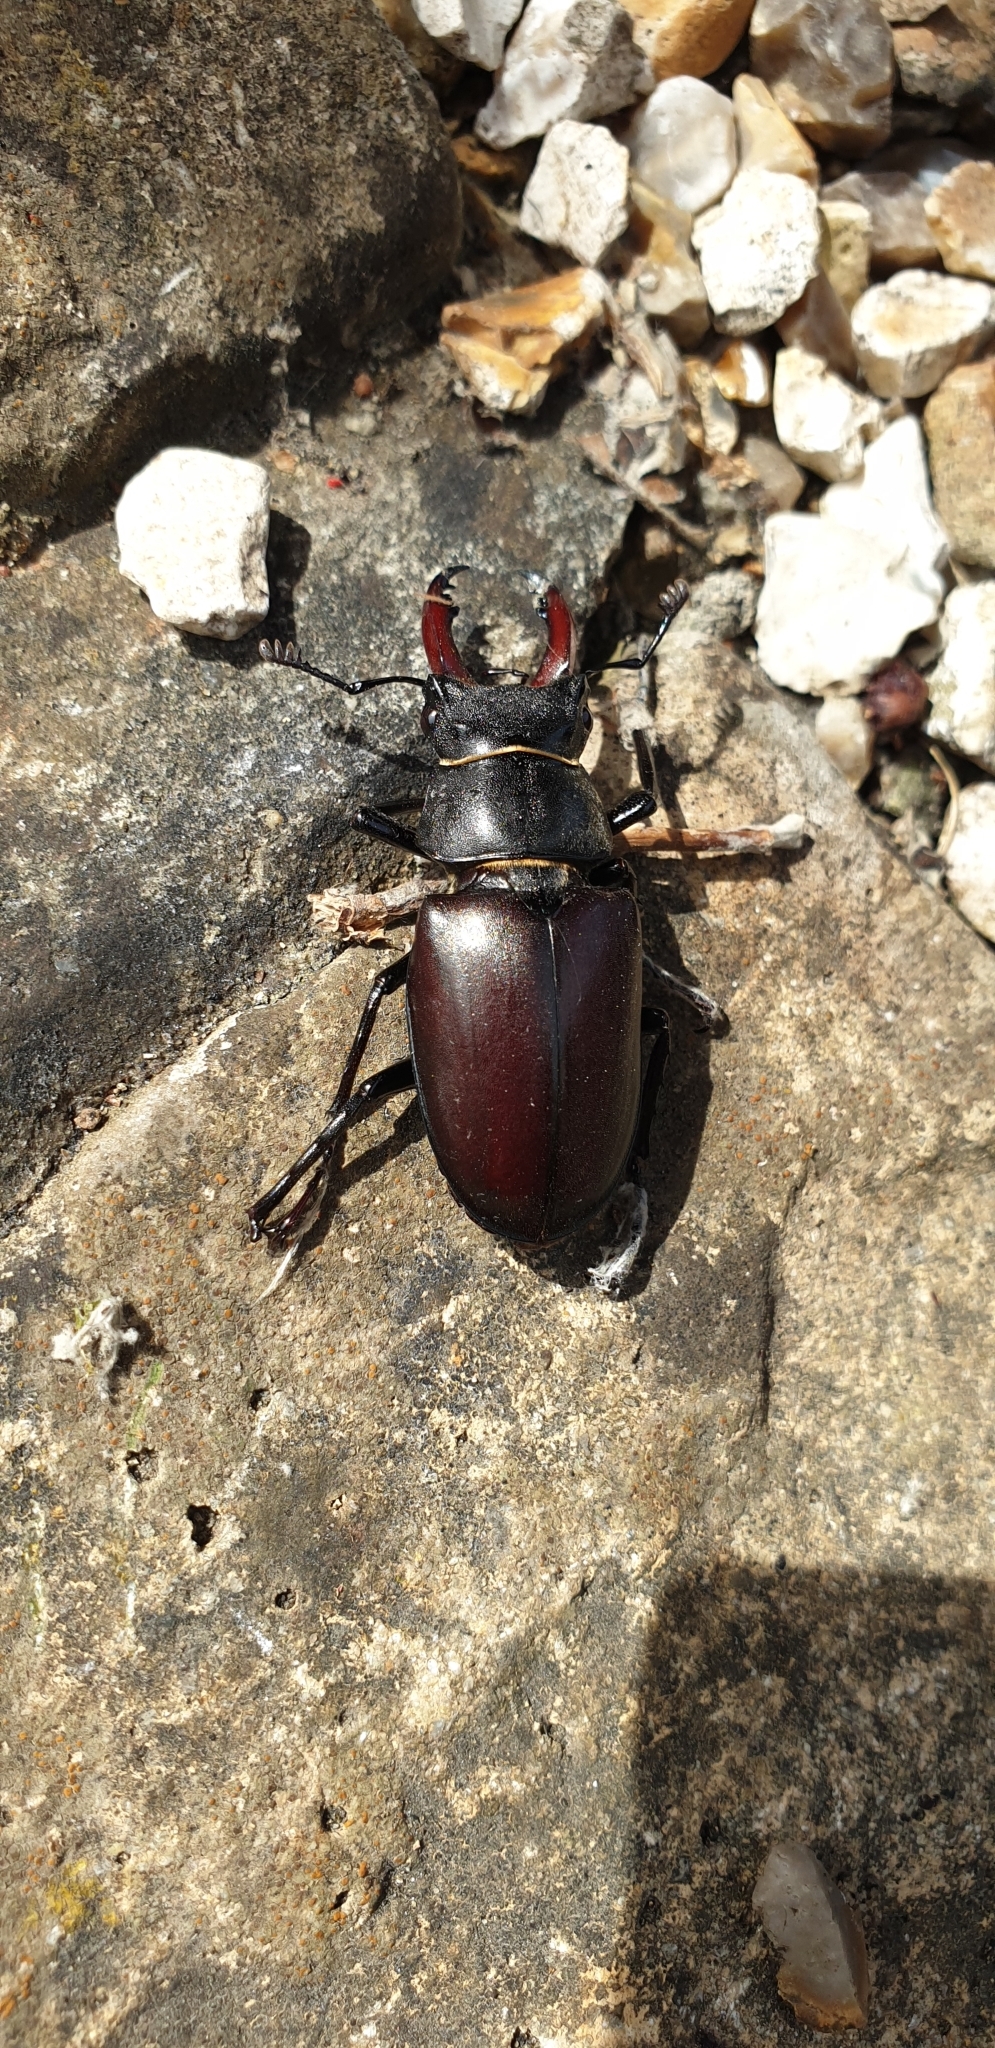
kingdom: Animalia
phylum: Arthropoda
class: Insecta
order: Coleoptera
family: Lucanidae
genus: Lucanus
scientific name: Lucanus cervus
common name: Stag beetle
